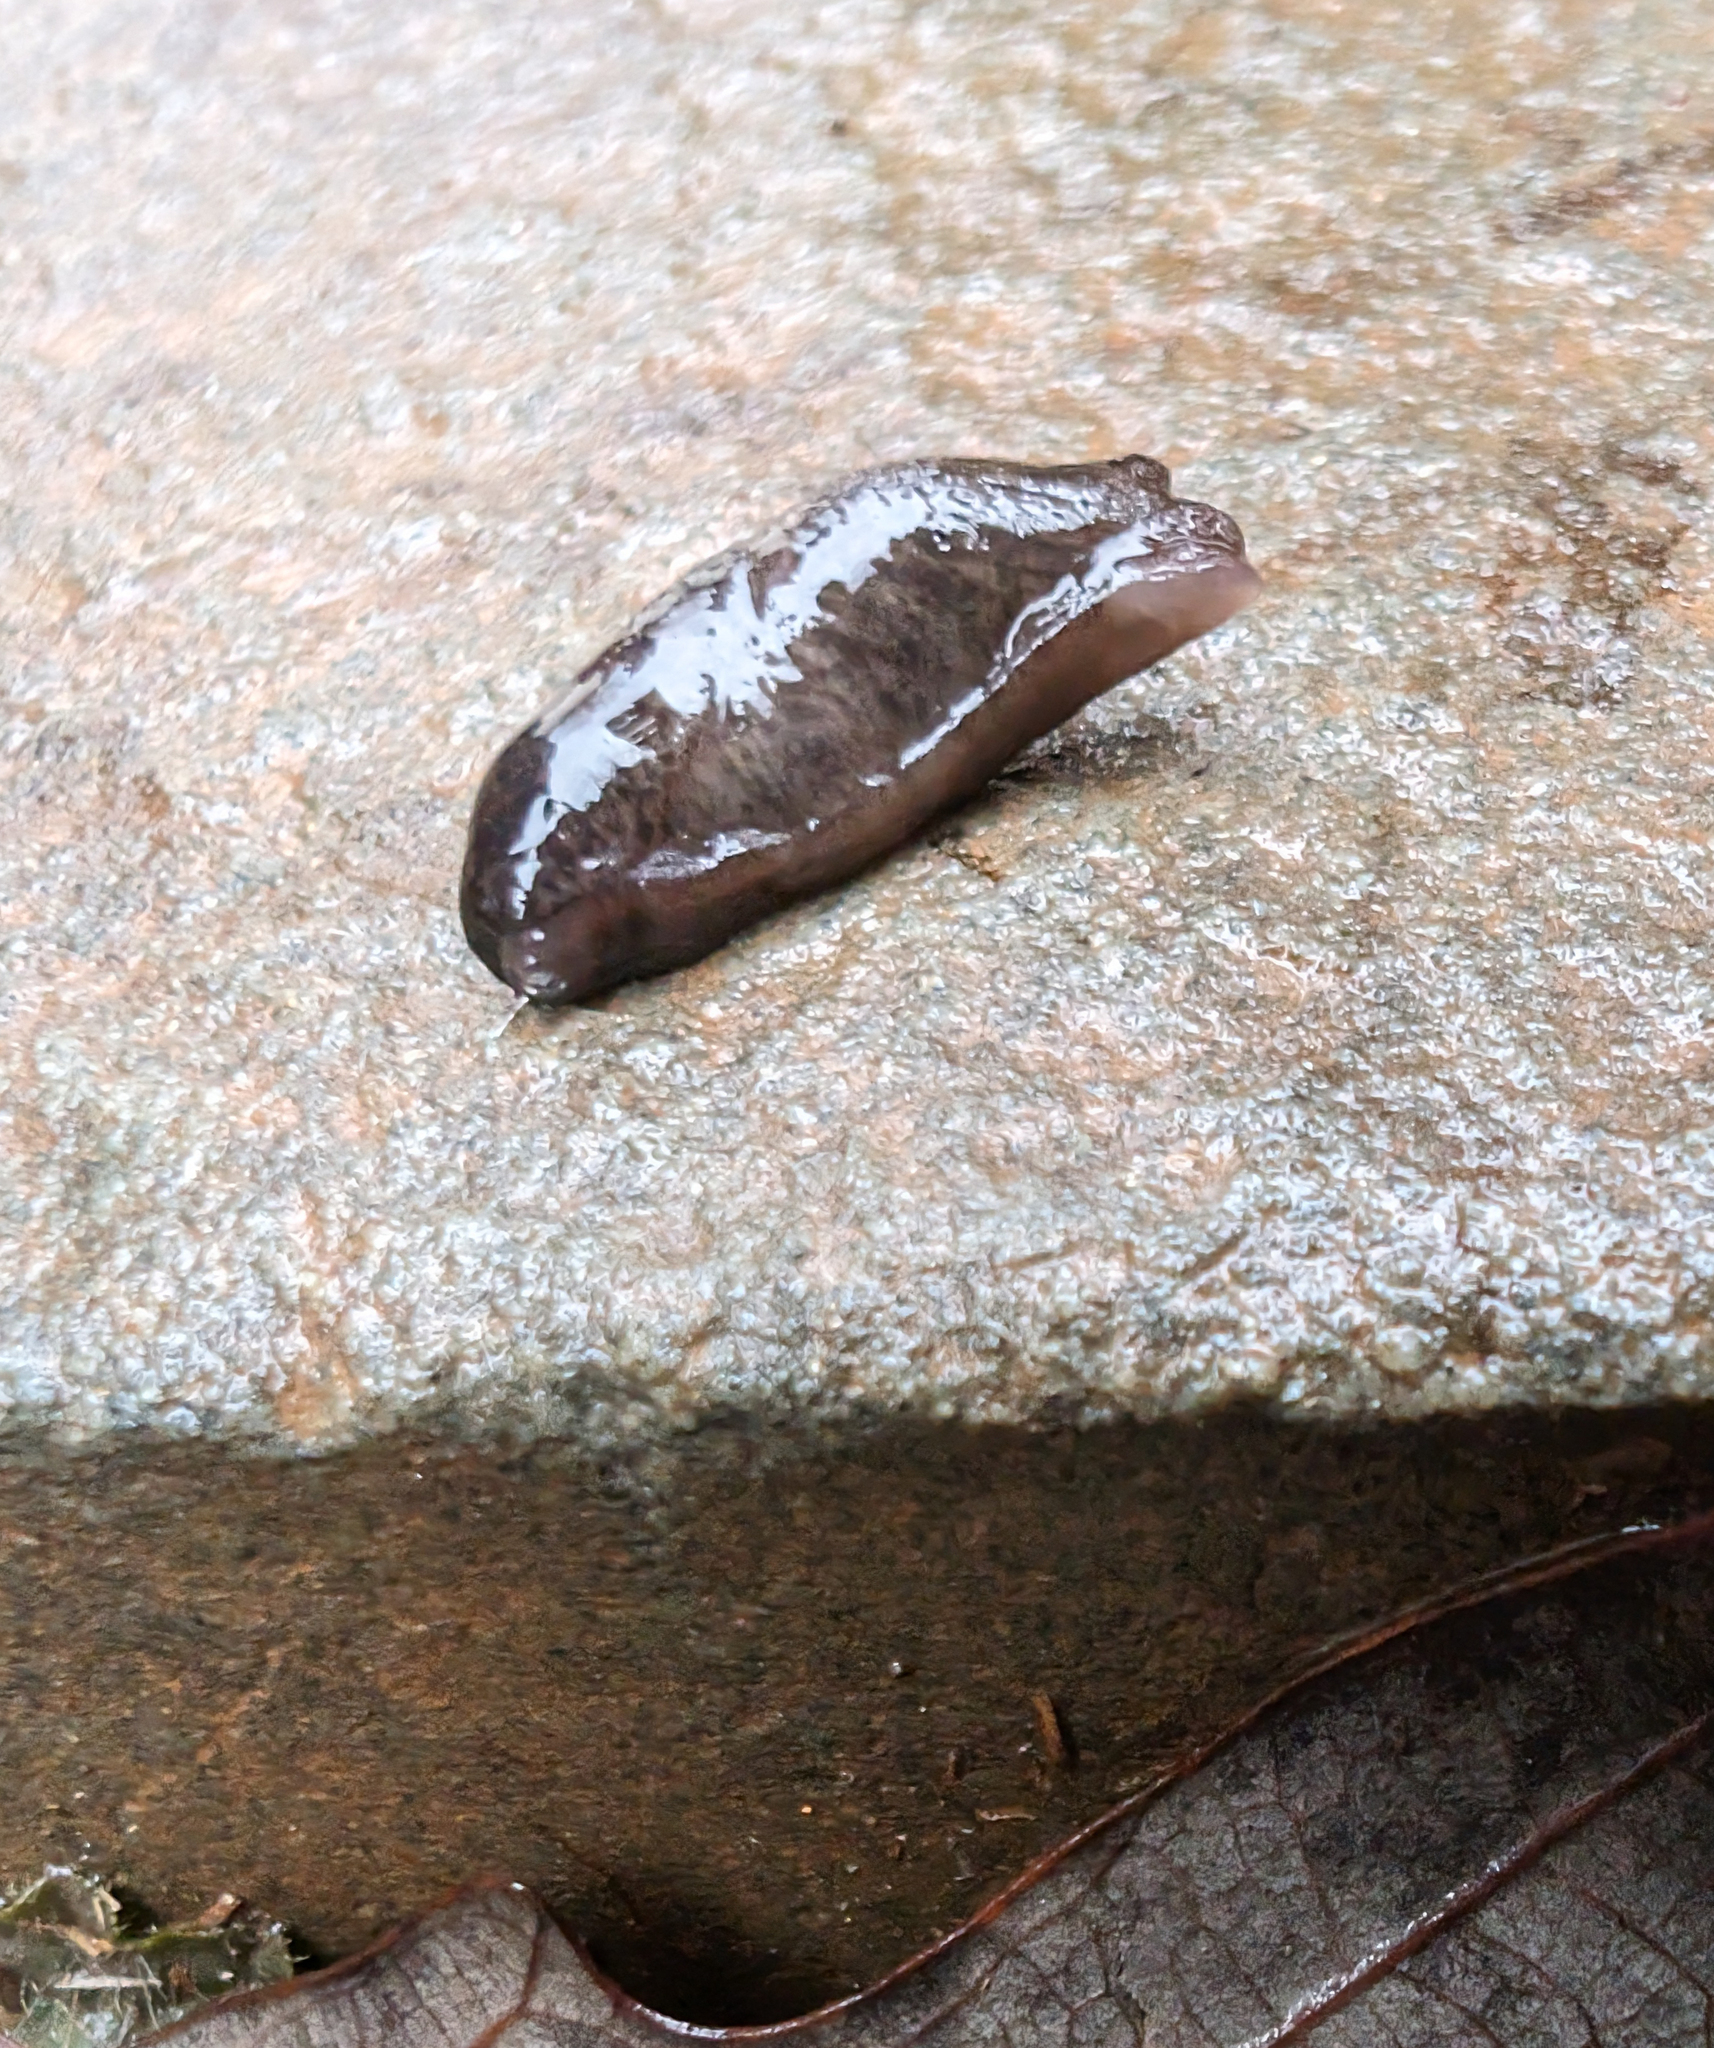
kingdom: Animalia
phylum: Mollusca
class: Gastropoda
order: Stylommatophora
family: Agriolimacidae
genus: Deroceras
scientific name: Deroceras laeve
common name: Marsh slug
